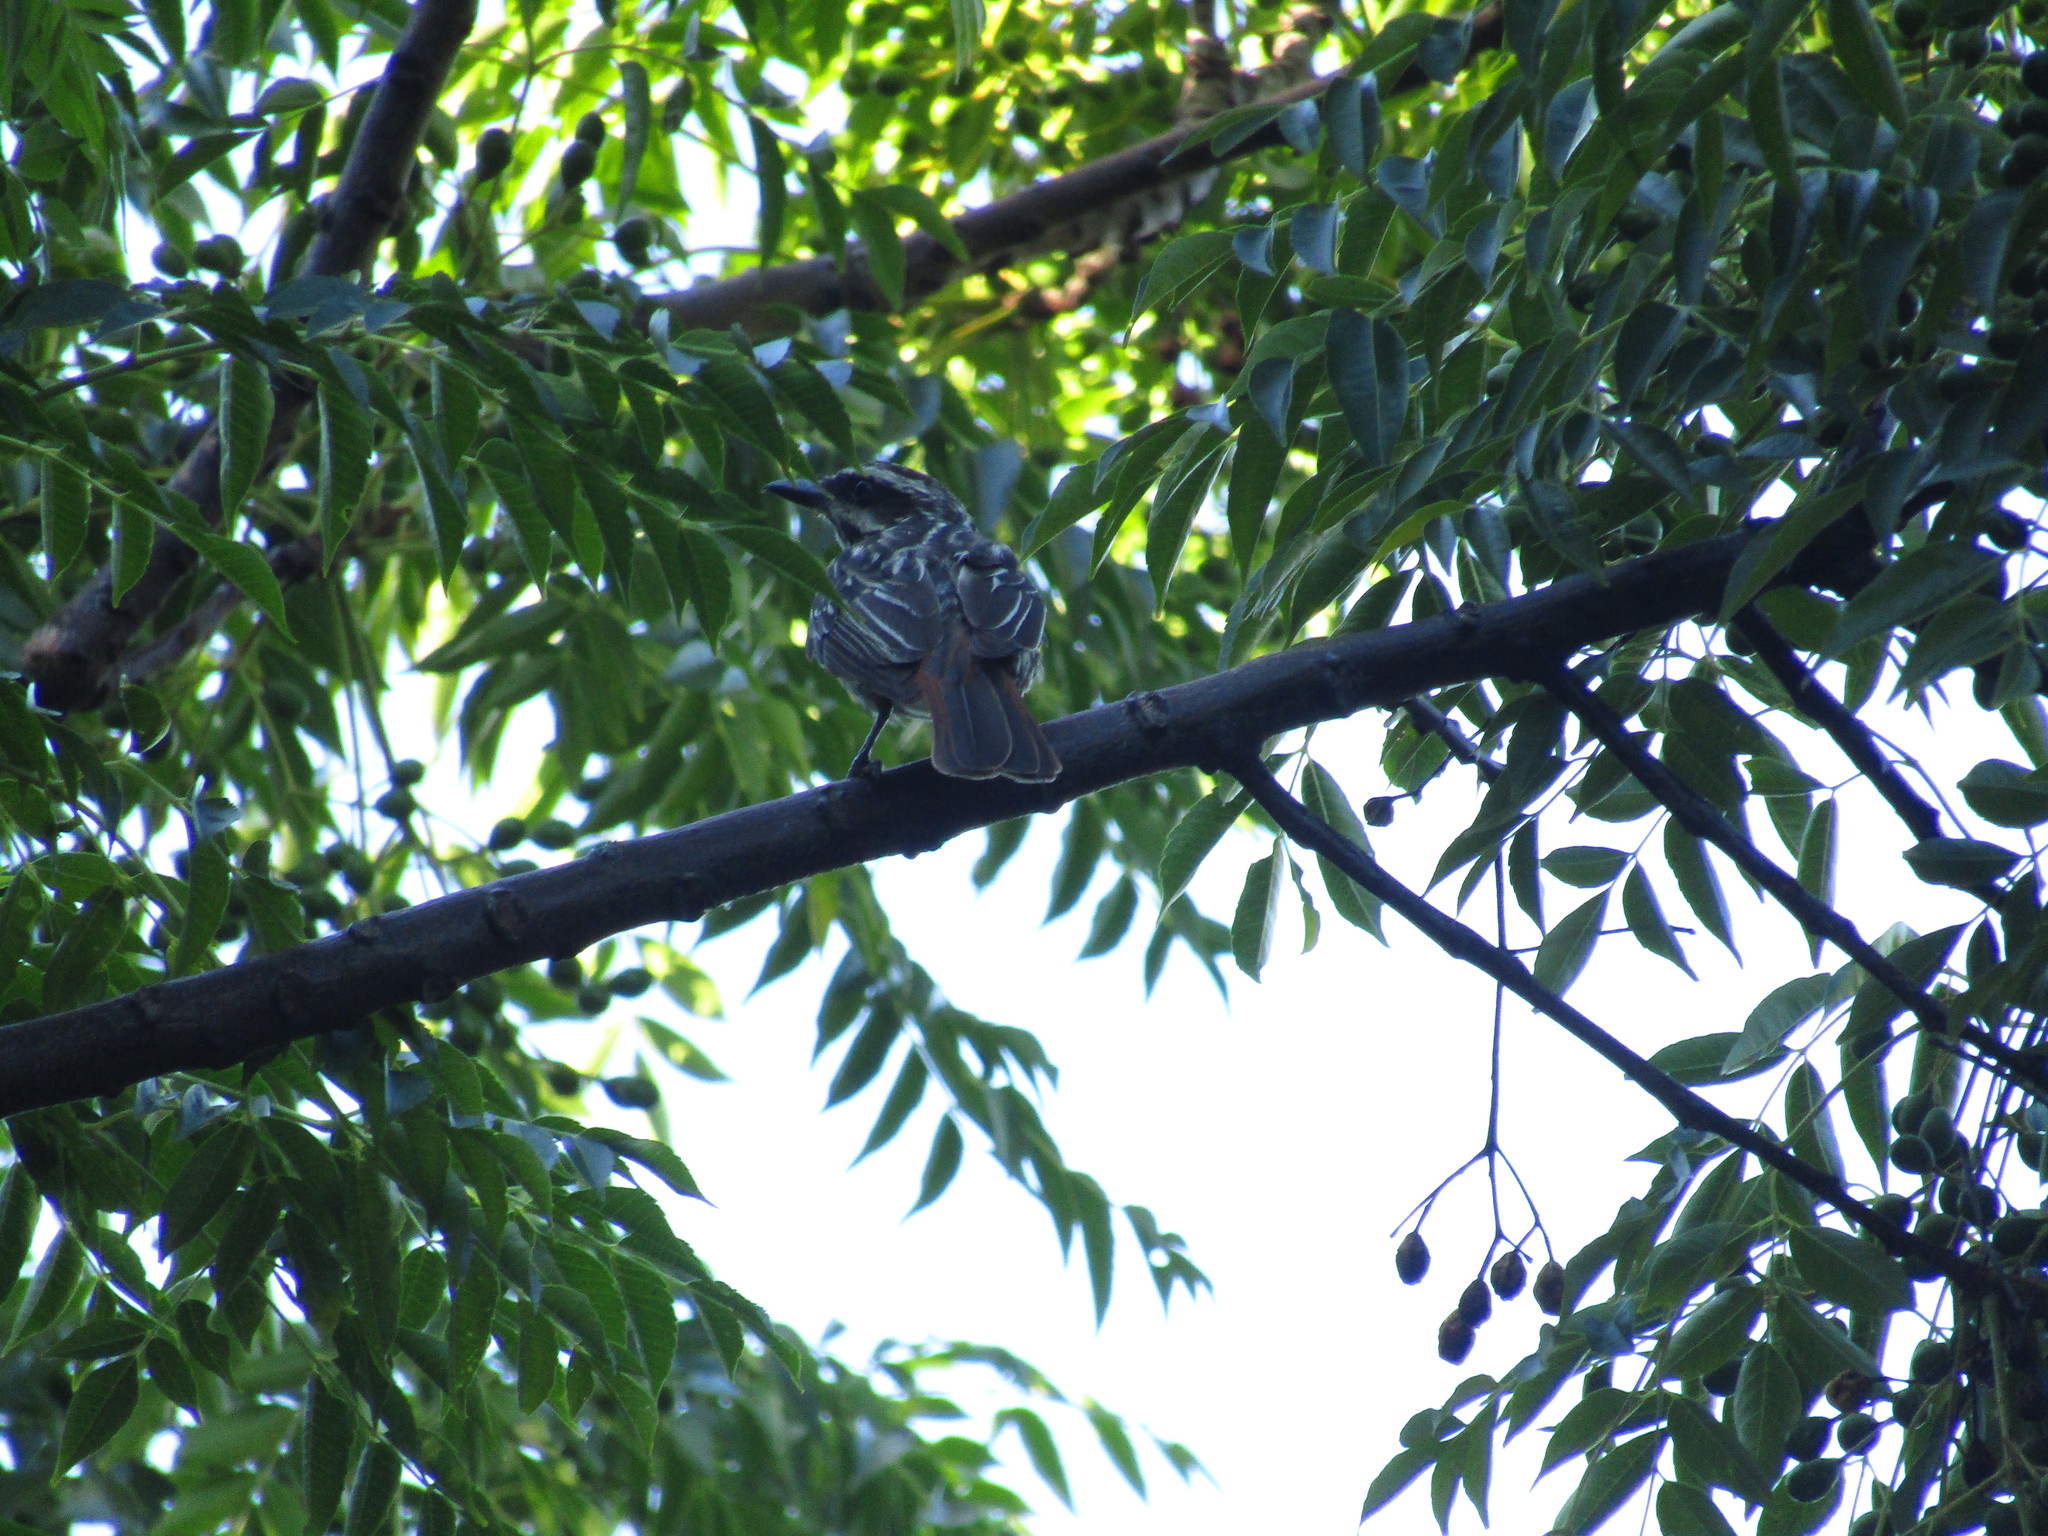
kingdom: Animalia
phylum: Chordata
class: Aves
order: Passeriformes
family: Tyrannidae
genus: Myiodynastes
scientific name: Myiodynastes maculatus
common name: Streaked flycatcher
